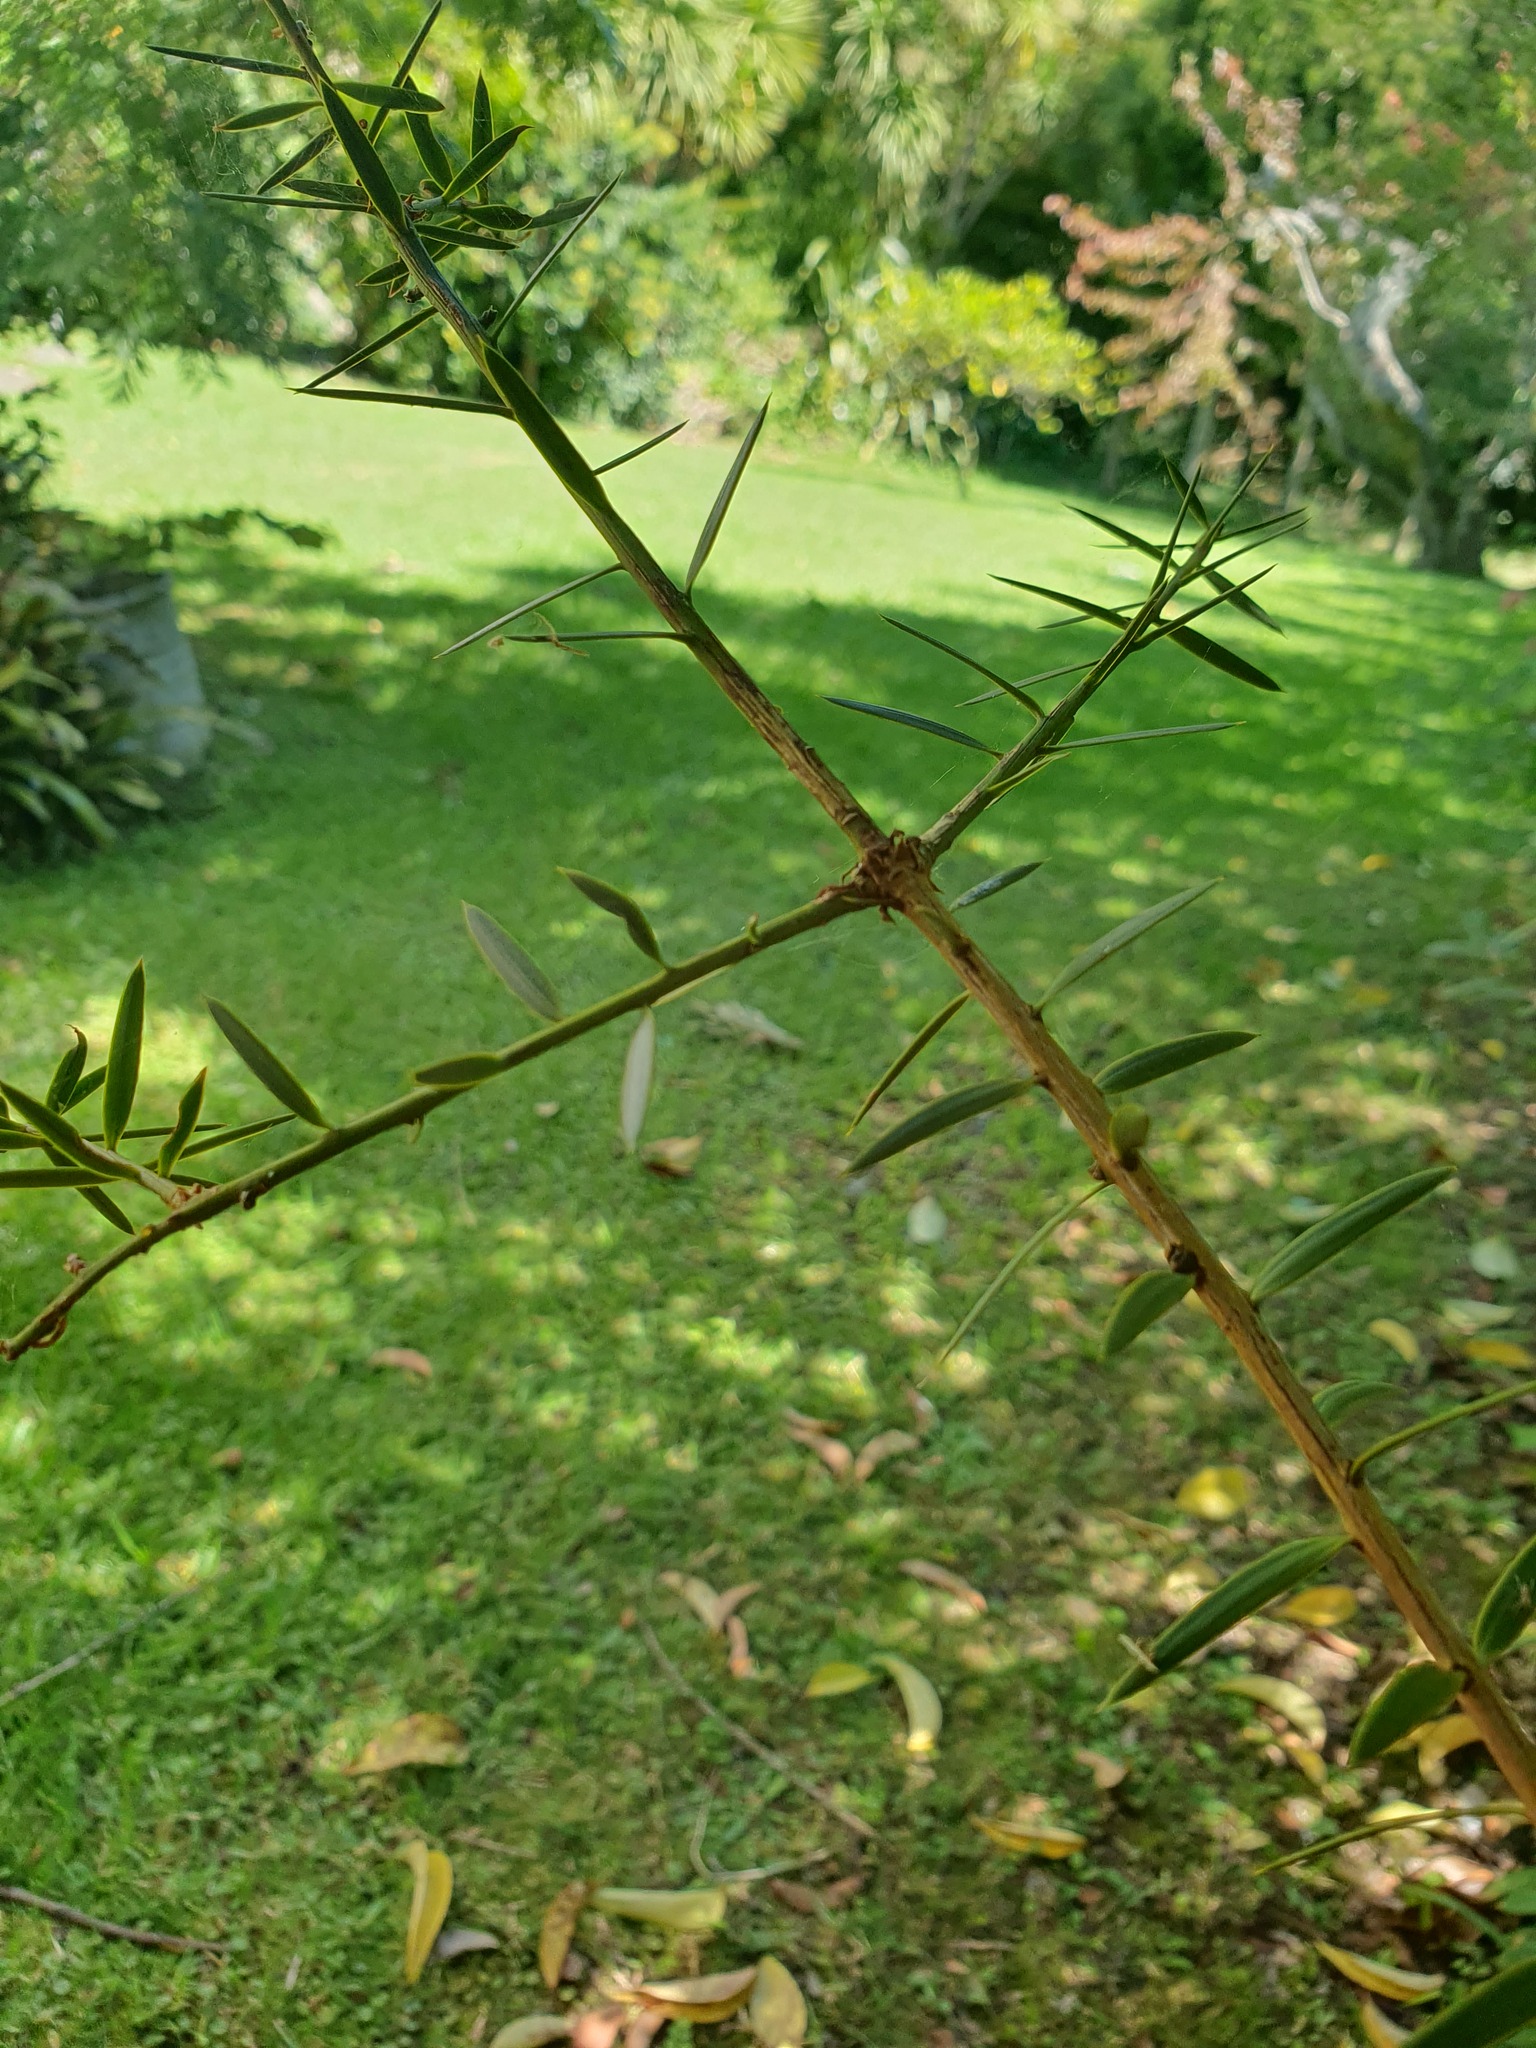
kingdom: Plantae
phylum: Tracheophyta
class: Pinopsida
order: Pinales
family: Podocarpaceae
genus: Podocarpus
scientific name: Podocarpus totara
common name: Totara
